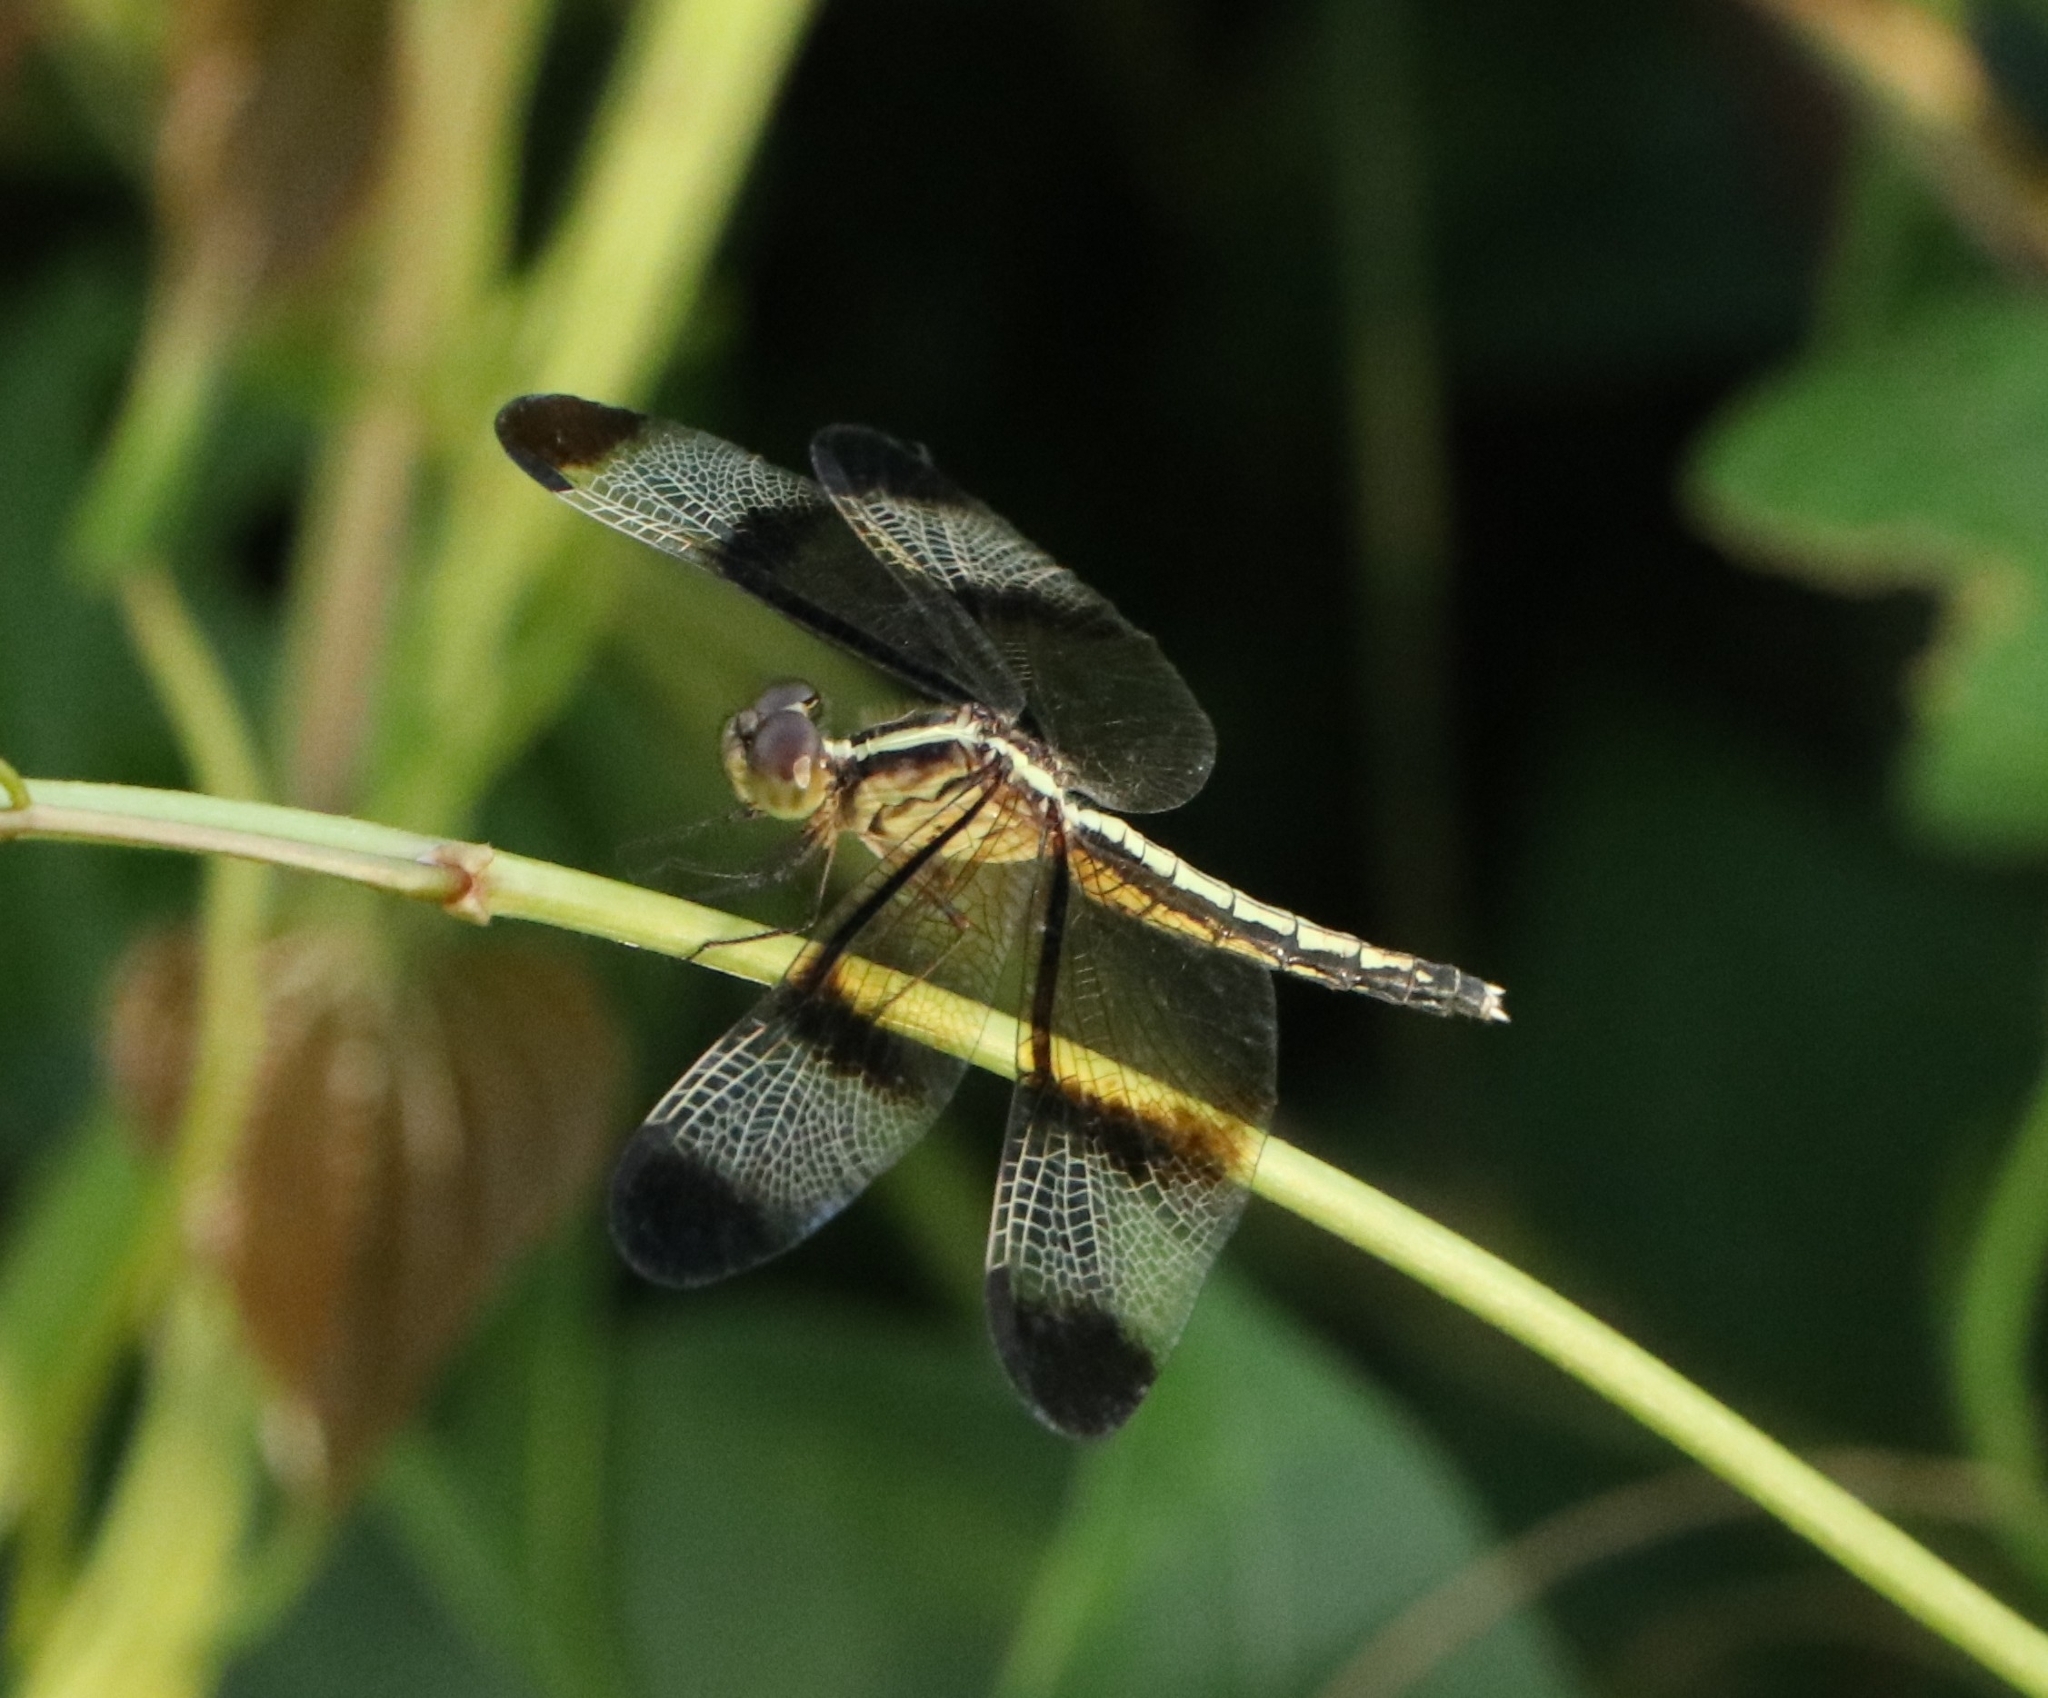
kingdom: Animalia
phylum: Arthropoda
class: Insecta
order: Odonata
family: Libellulidae
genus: Neurothemis
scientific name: Neurothemis tullia
